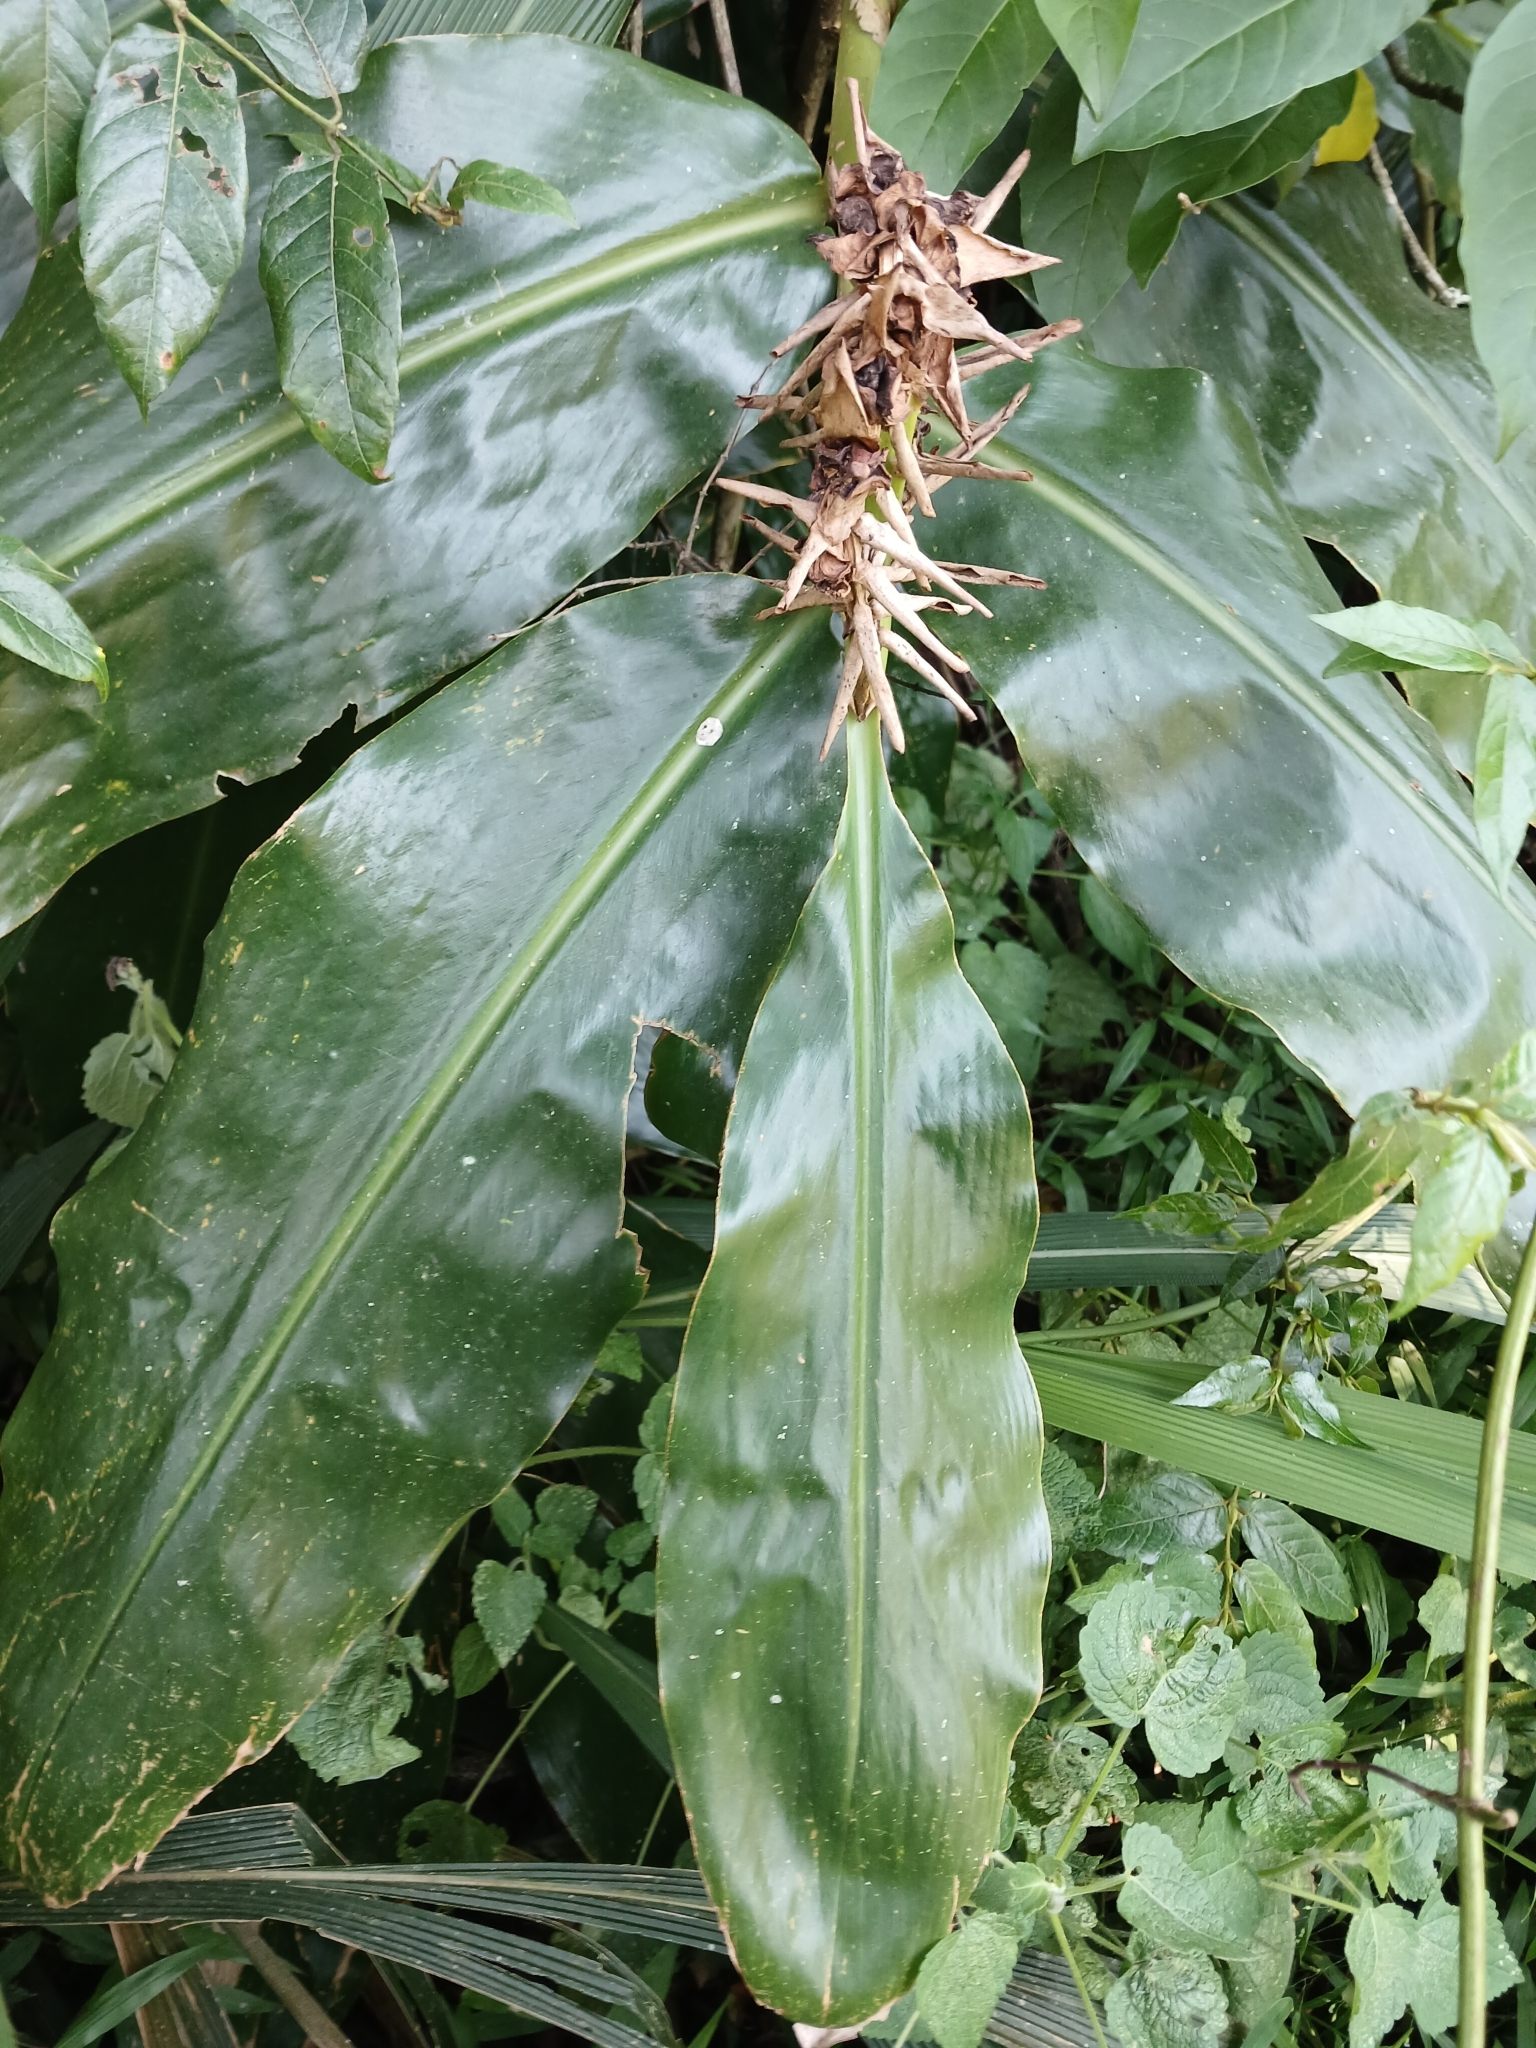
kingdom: Plantae
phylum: Tracheophyta
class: Liliopsida
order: Zingiberales
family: Zingiberaceae
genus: Hedychium
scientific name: Hedychium gardnerianum
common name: Himalayan ginger
